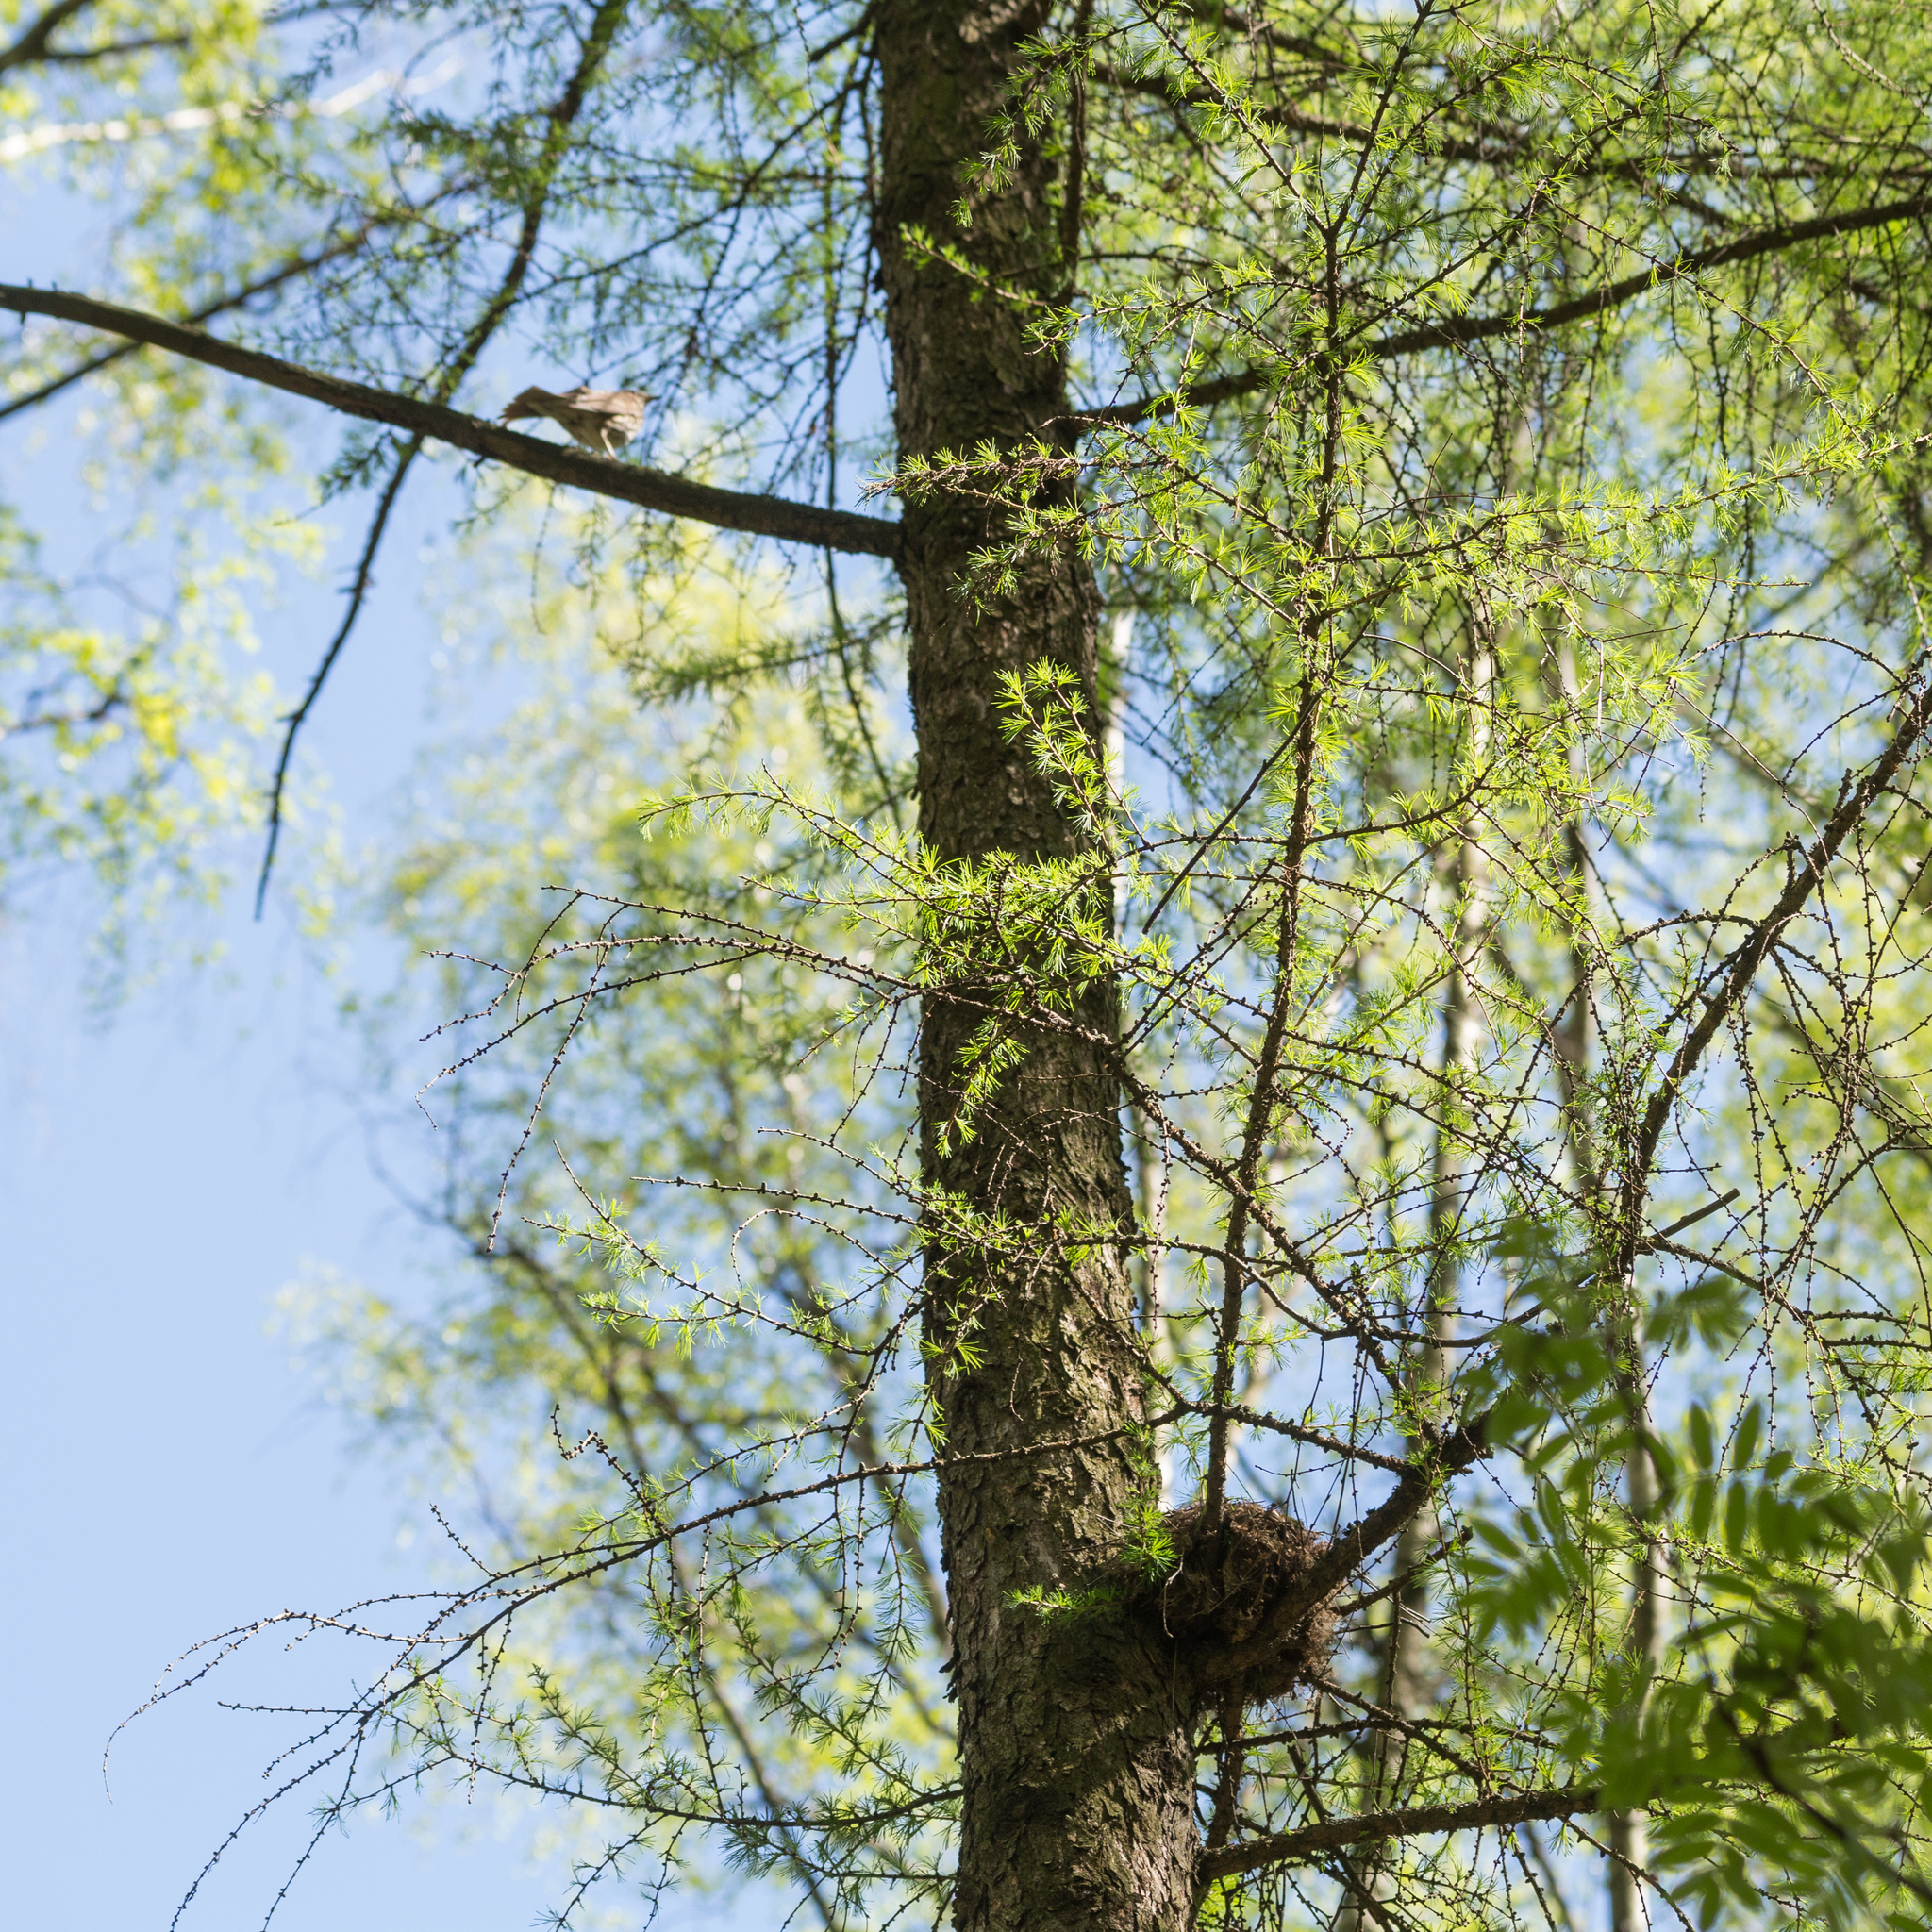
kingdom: Animalia
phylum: Chordata
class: Aves
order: Passeriformes
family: Turdidae
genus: Turdus
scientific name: Turdus philomelos
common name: Song thrush
